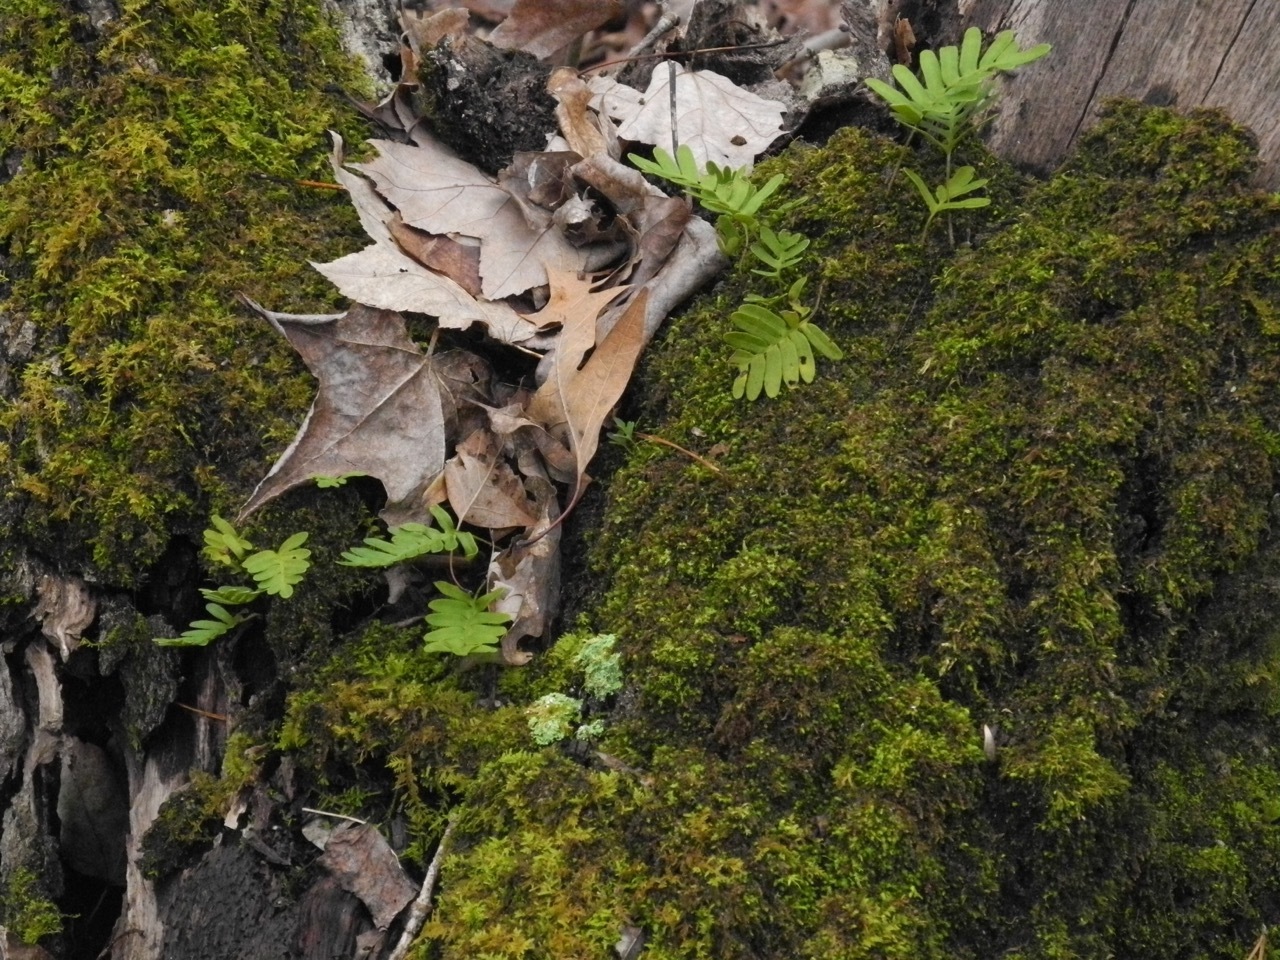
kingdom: Plantae
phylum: Tracheophyta
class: Polypodiopsida
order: Polypodiales
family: Polypodiaceae
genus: Pleopeltis
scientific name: Pleopeltis michauxiana
